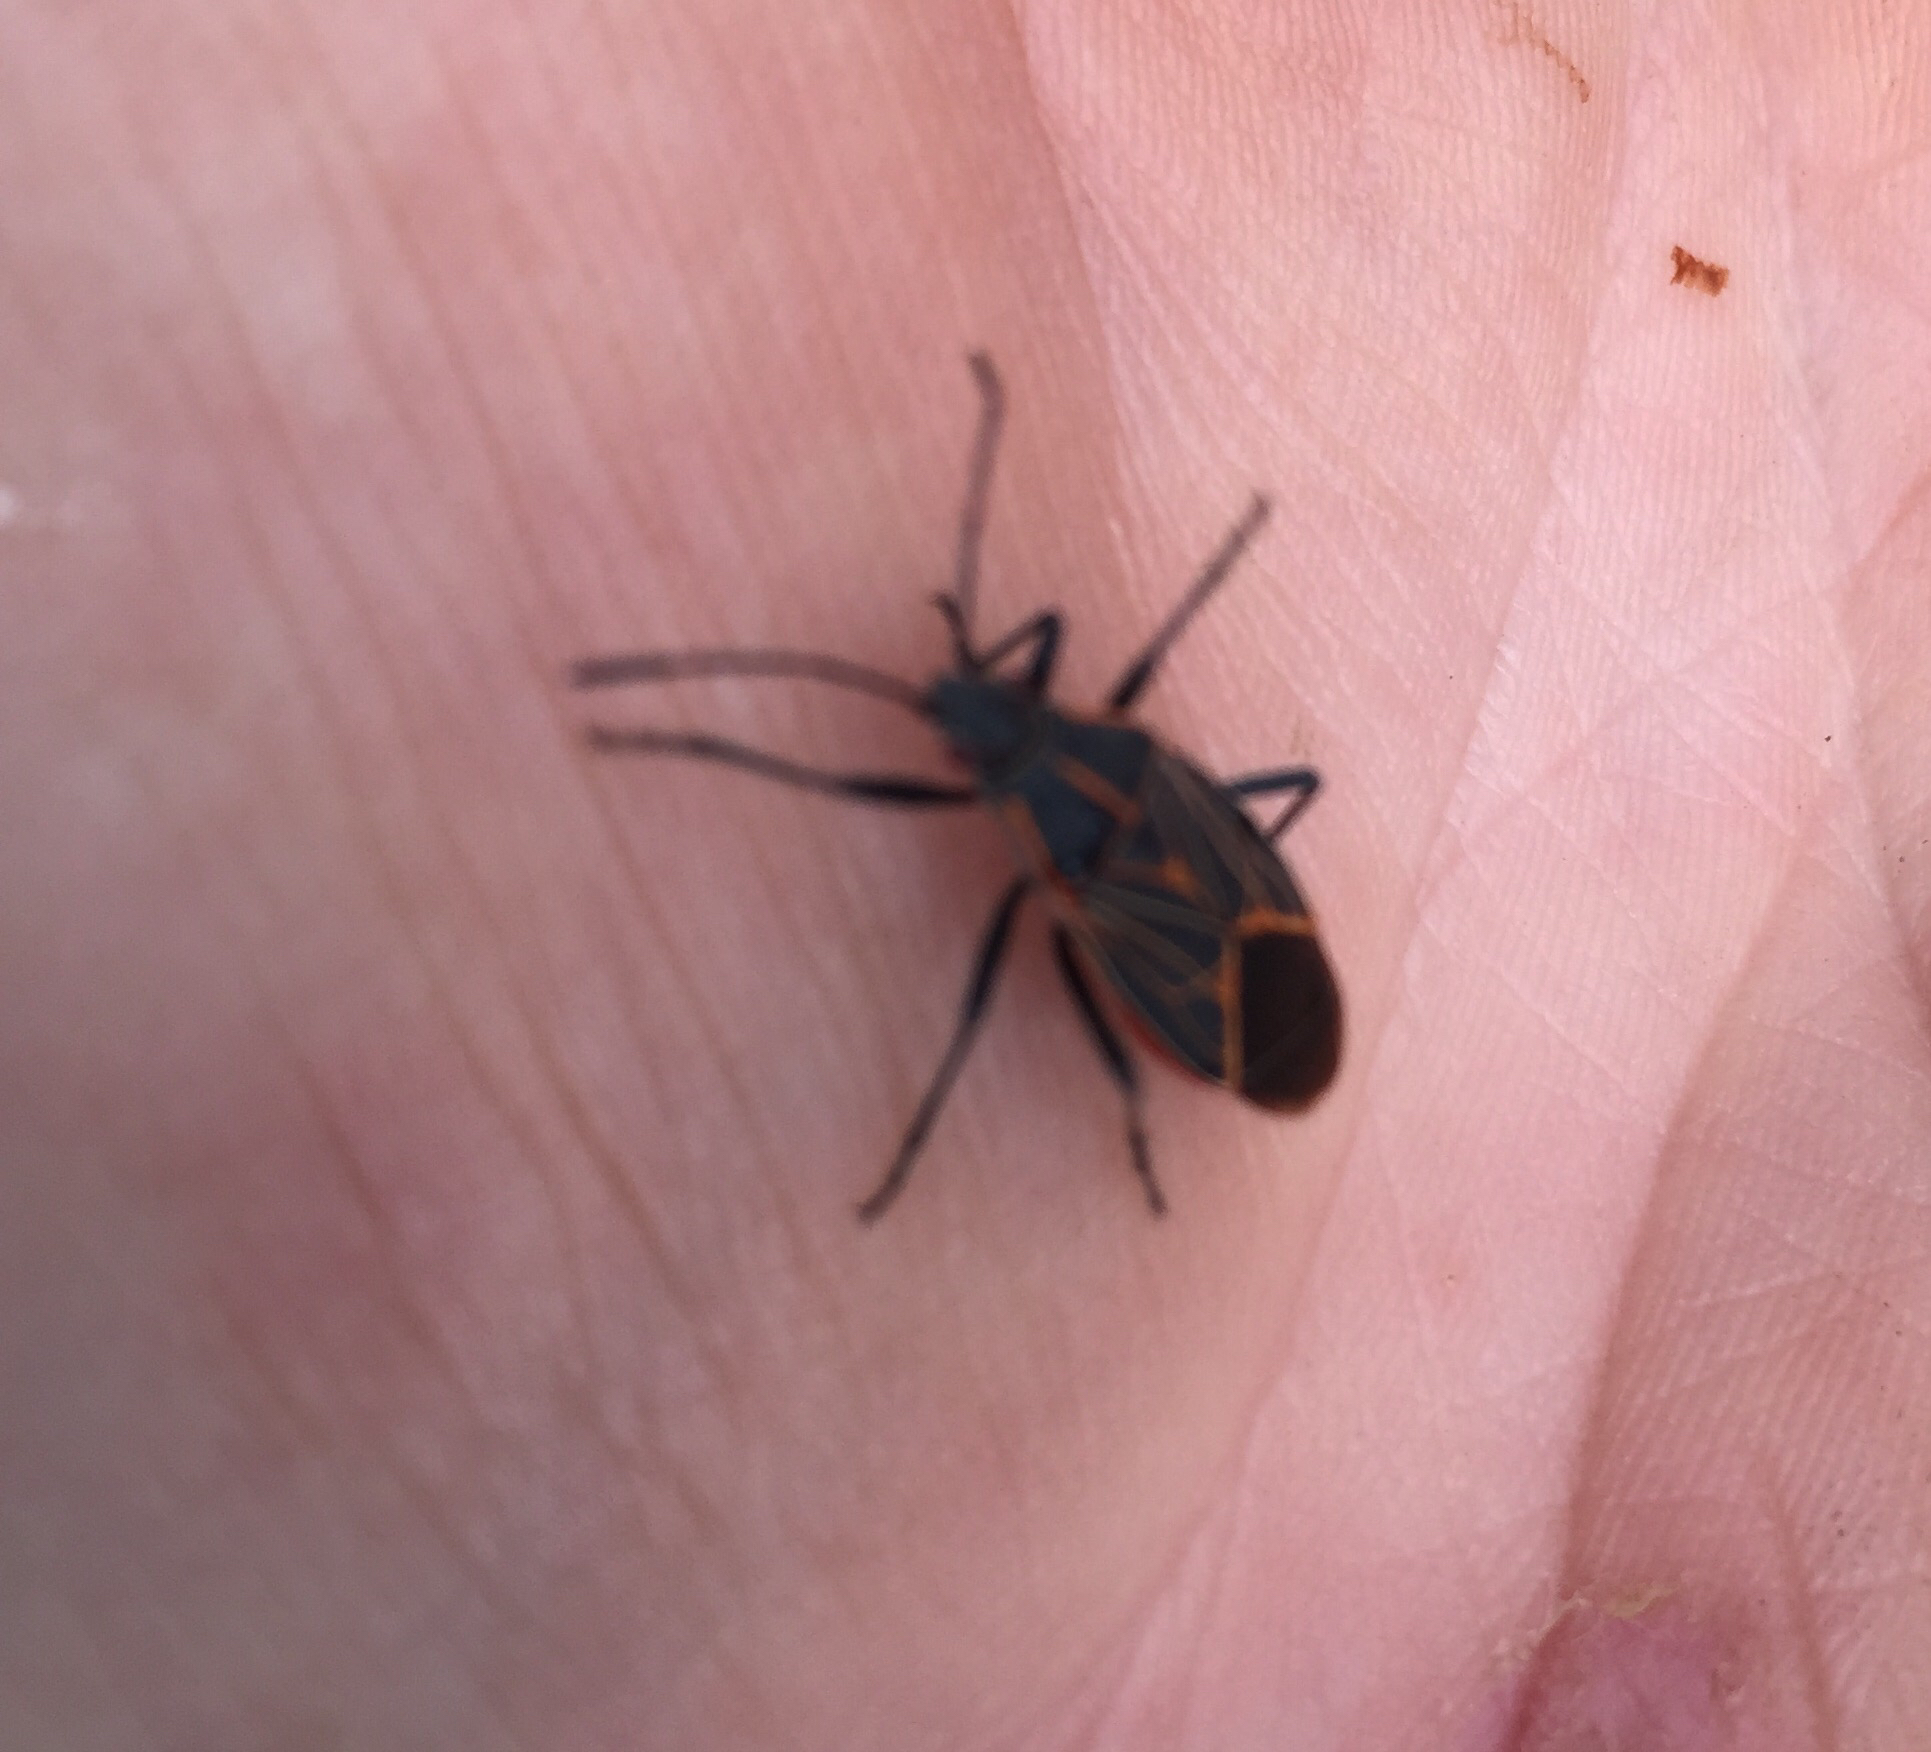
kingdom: Animalia
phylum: Arthropoda
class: Insecta
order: Hemiptera
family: Rhopalidae
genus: Boisea
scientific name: Boisea rubrolineata
